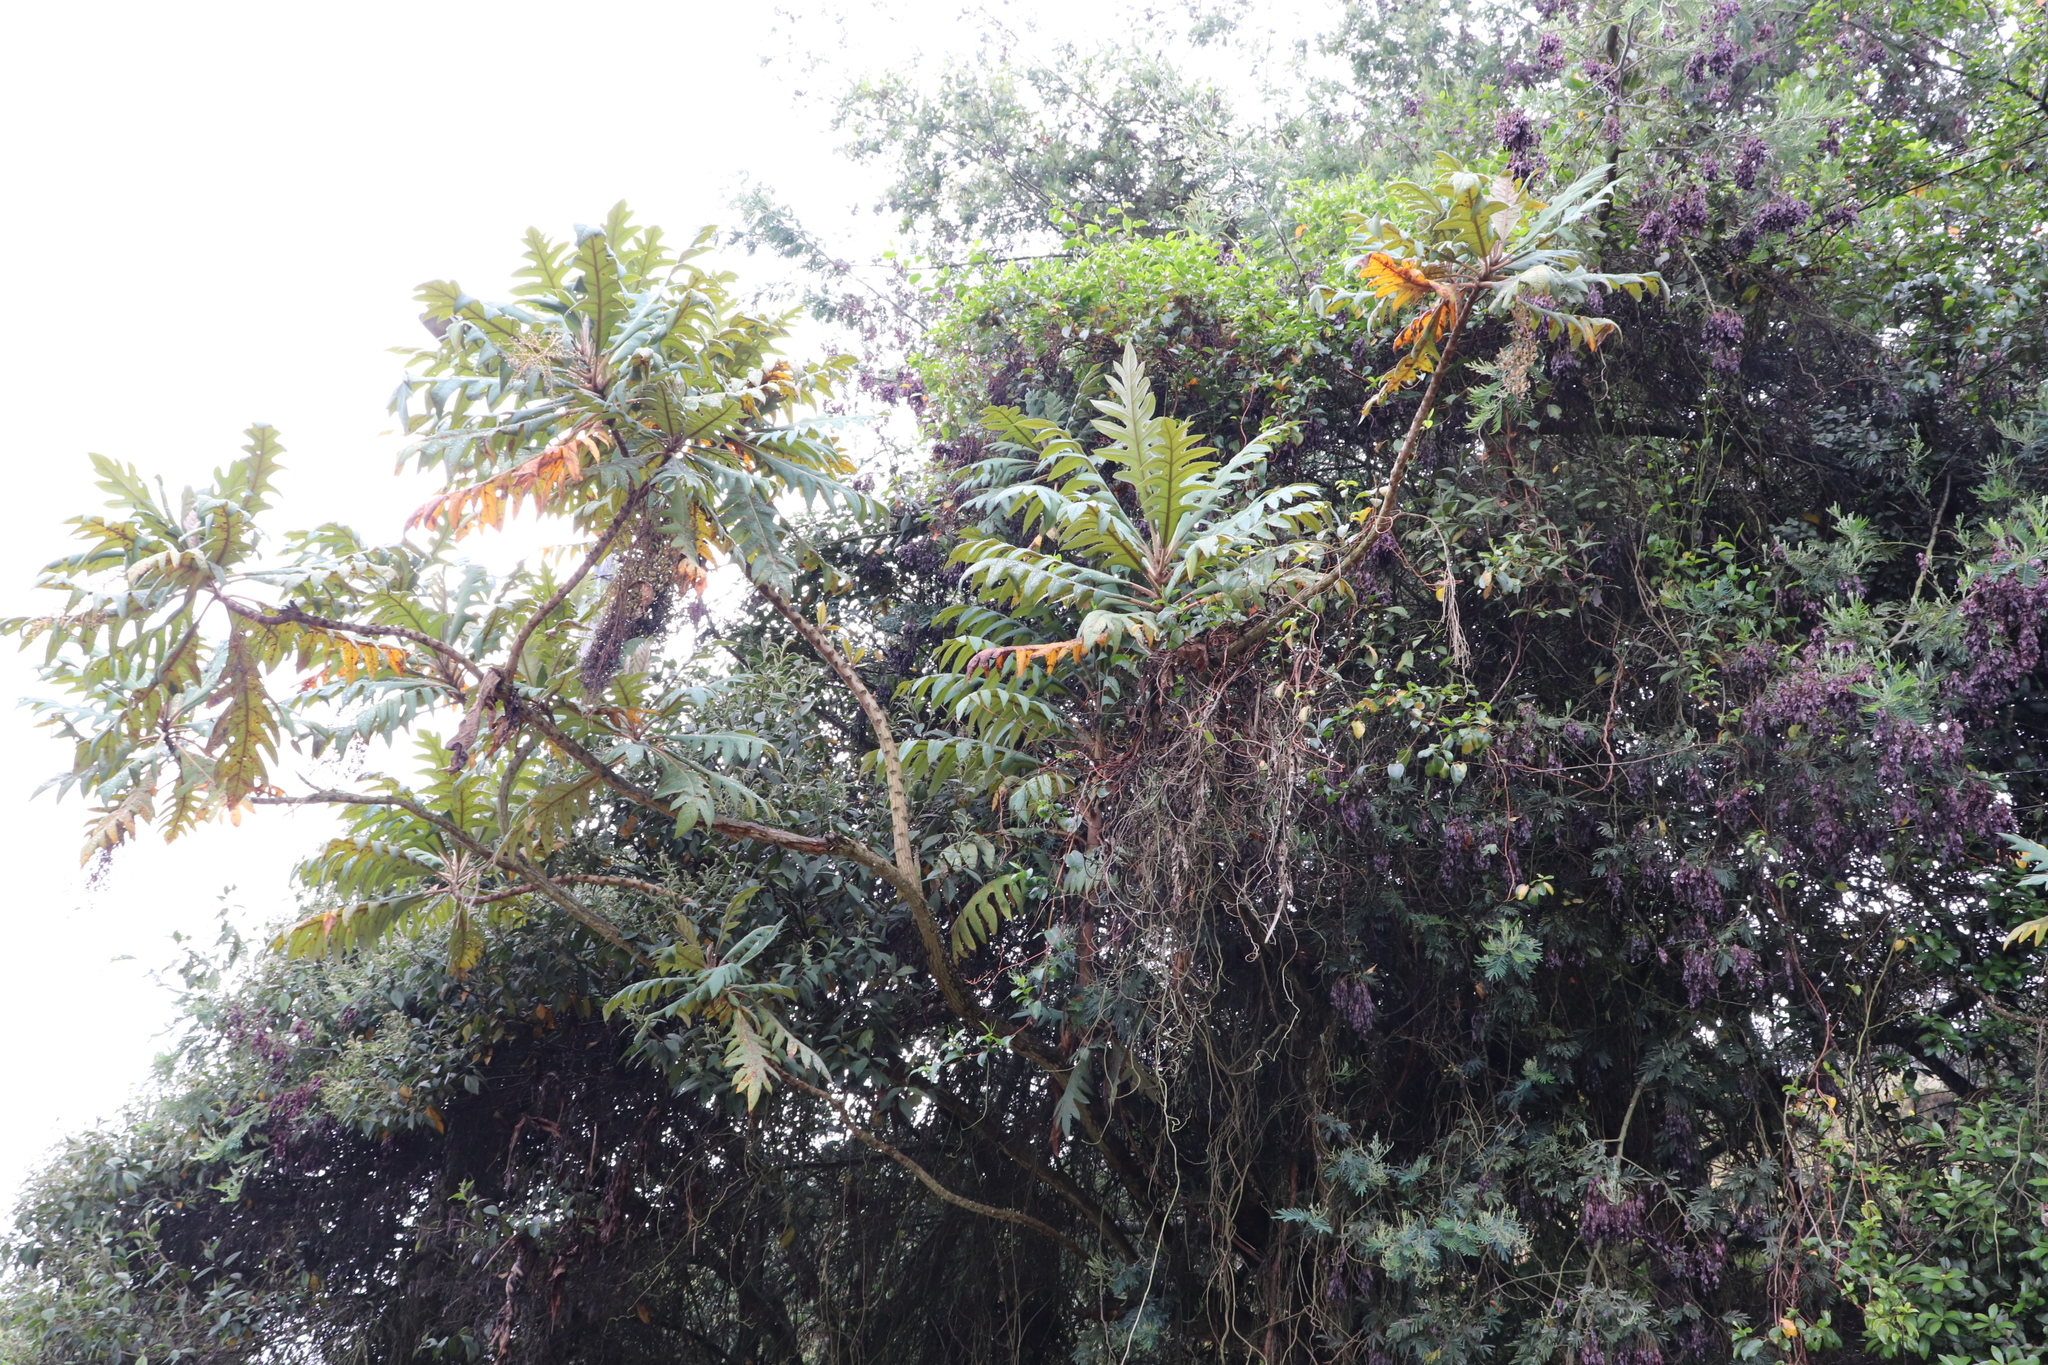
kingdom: Plantae
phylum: Tracheophyta
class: Magnoliopsida
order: Ranunculales
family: Papaveraceae
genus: Bocconia
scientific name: Bocconia frutescens
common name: Tree poppy
